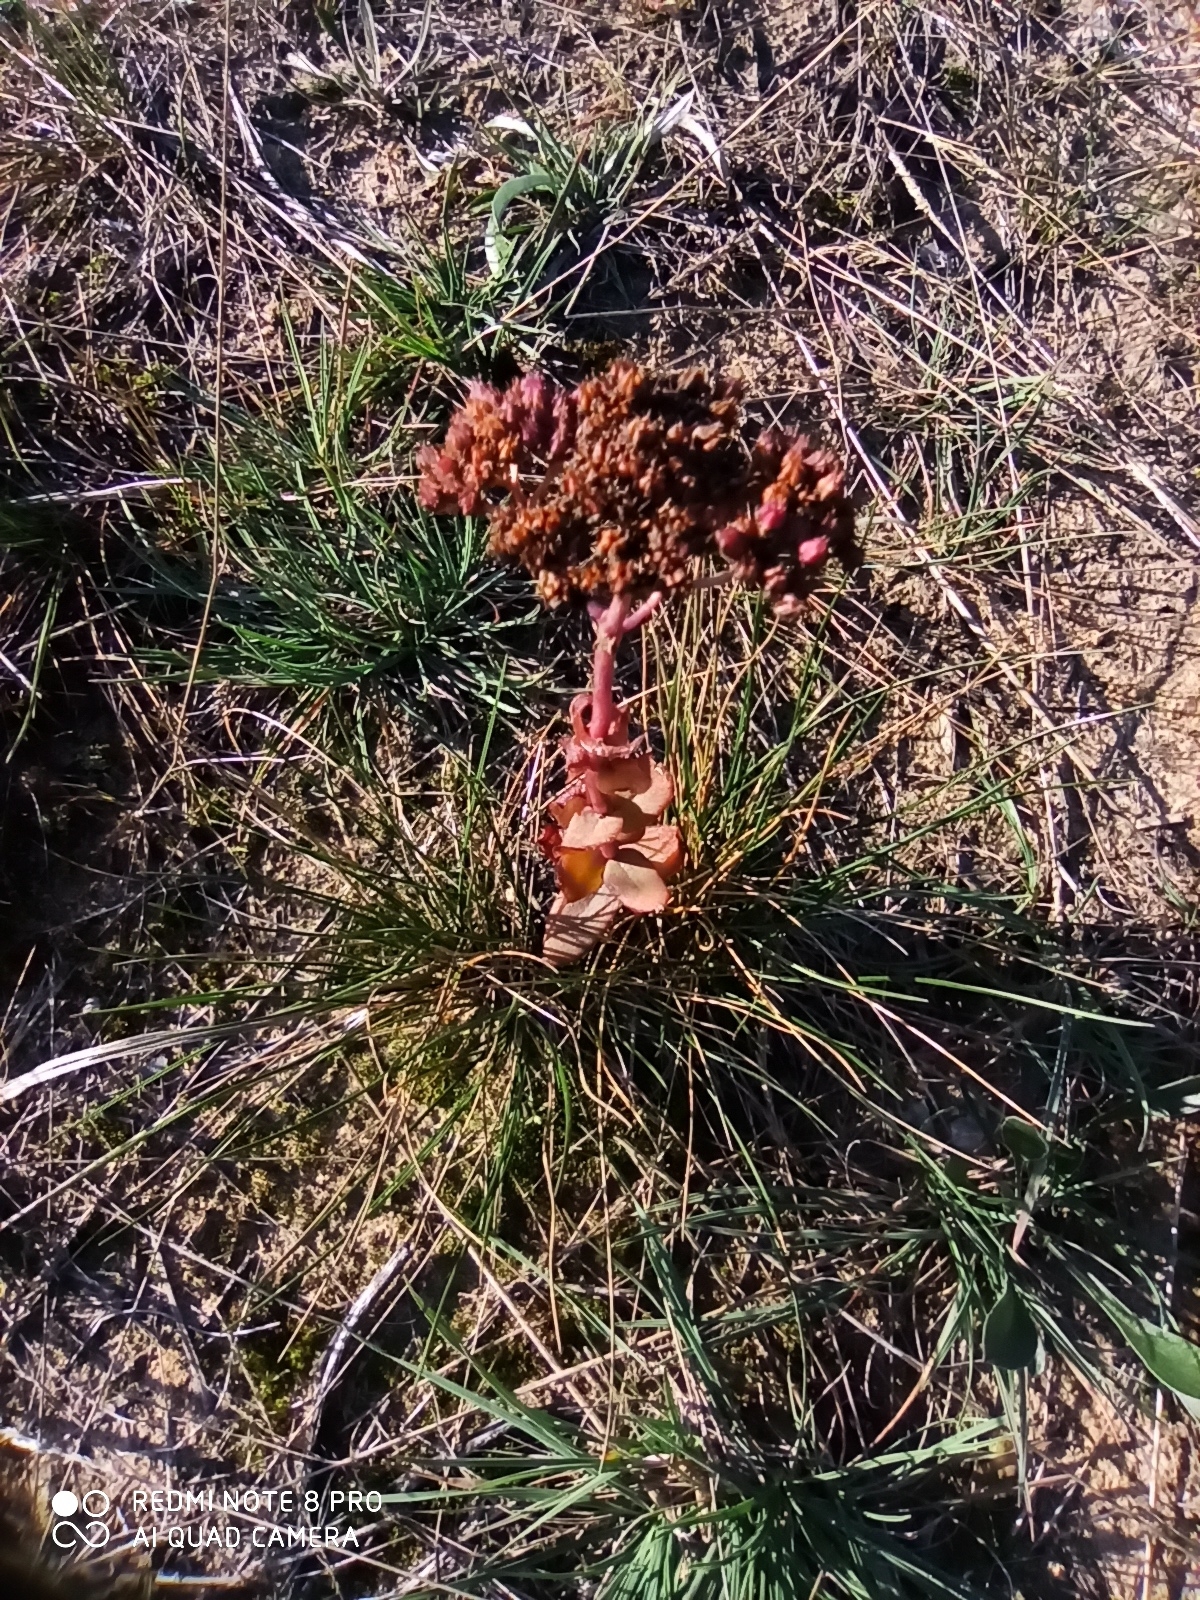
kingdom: Plantae
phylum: Tracheophyta
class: Magnoliopsida
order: Saxifragales
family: Crassulaceae
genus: Hylotelephium
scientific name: Hylotelephium maximum
